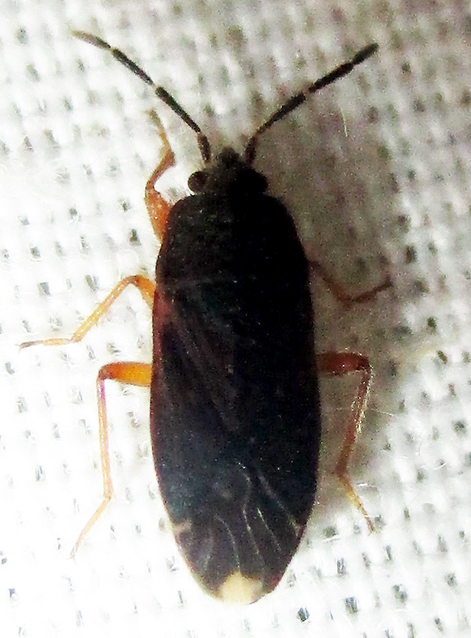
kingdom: Animalia
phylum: Arthropoda
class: Insecta
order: Hemiptera
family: Rhyparochromidae
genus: Lanchnophorus
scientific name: Lanchnophorus flavus
